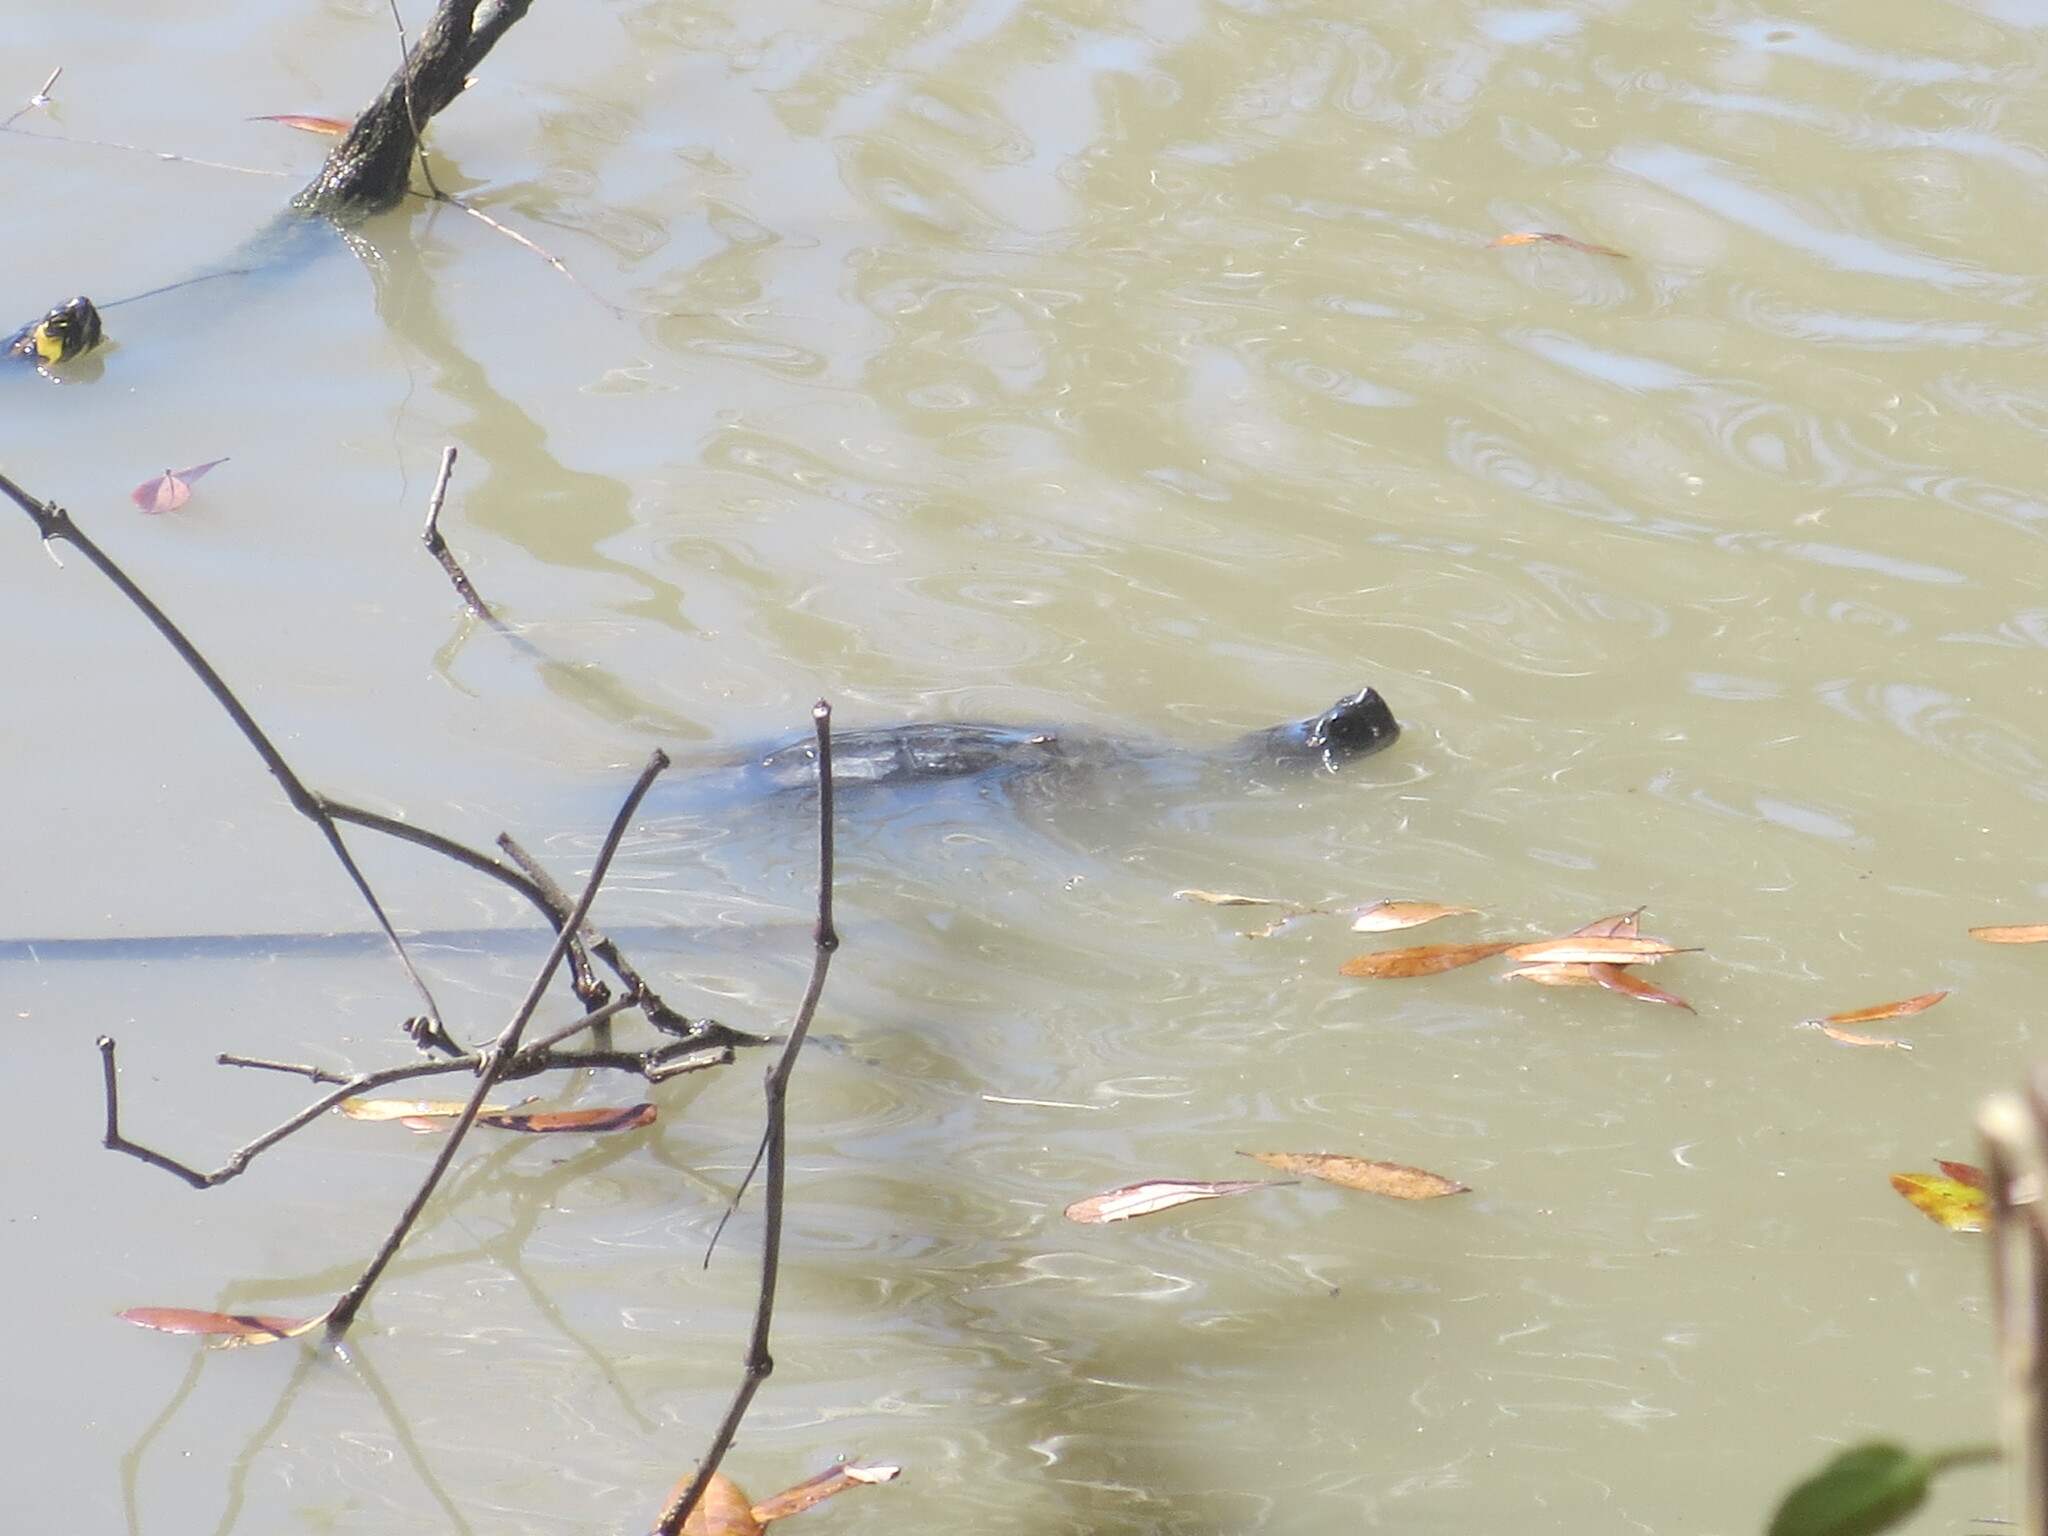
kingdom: Animalia
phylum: Chordata
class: Testudines
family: Emydidae
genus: Trachemys
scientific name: Trachemys scripta
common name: Slider
